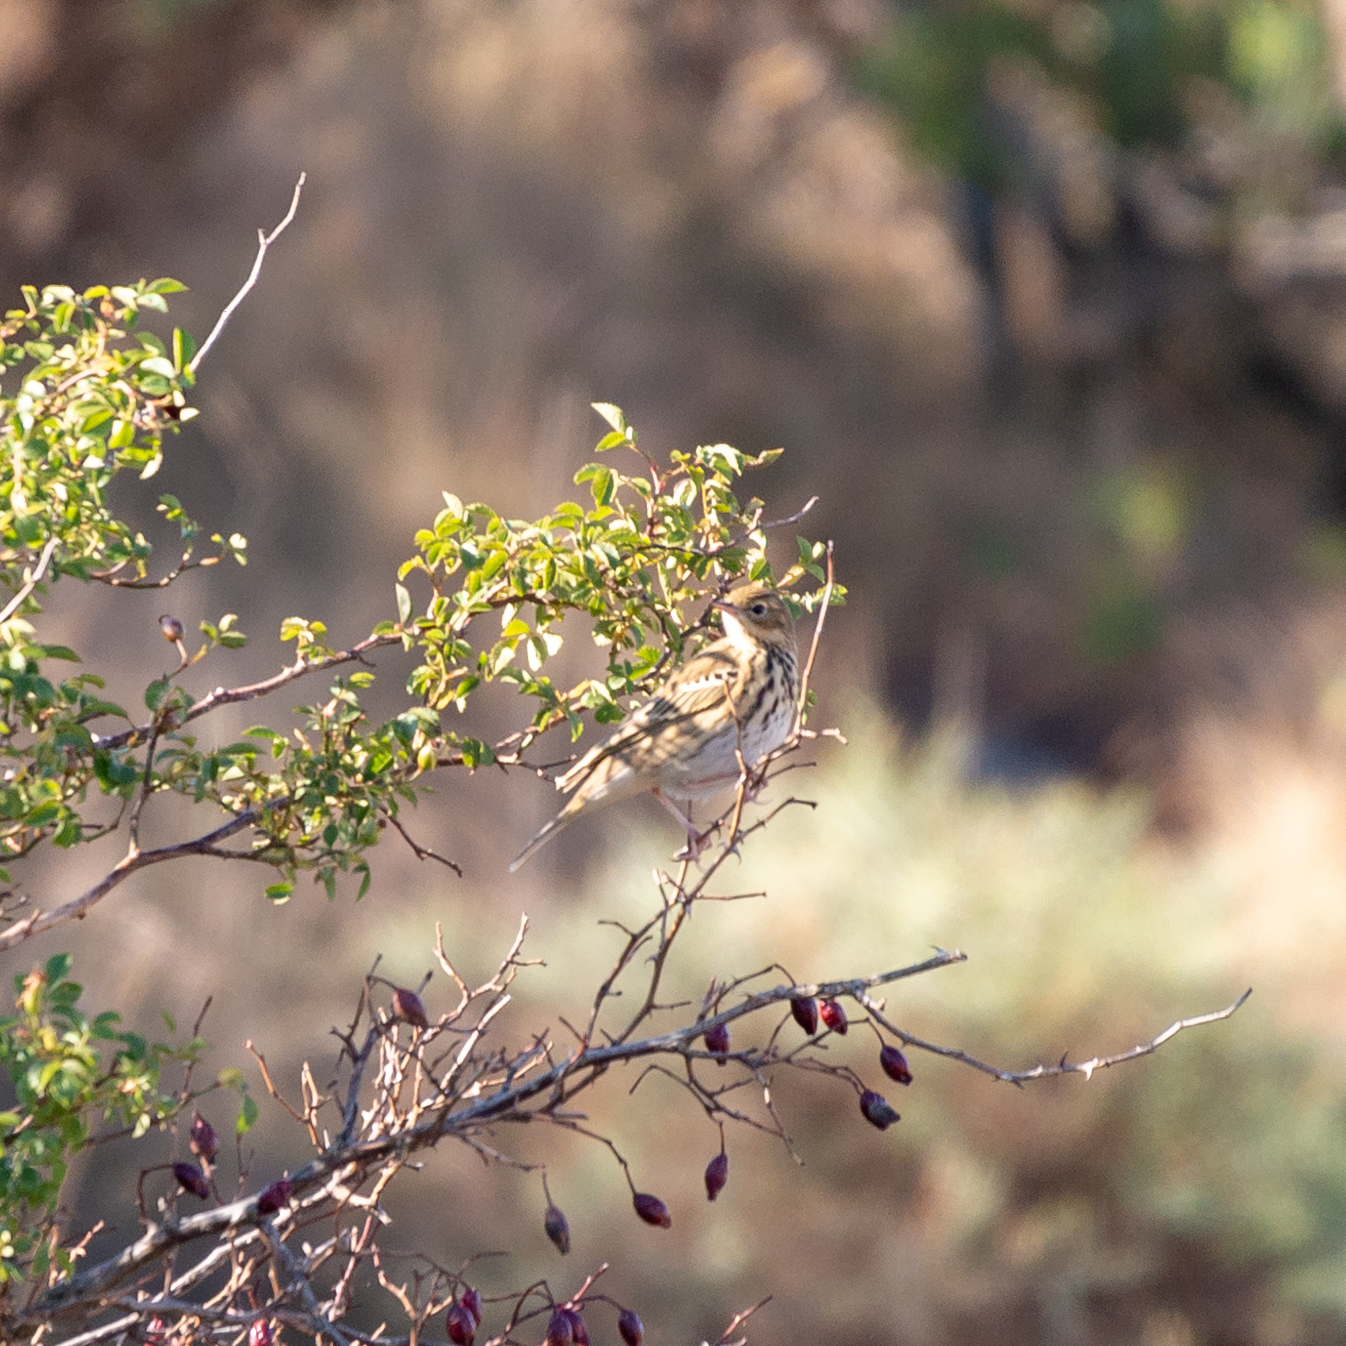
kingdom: Animalia
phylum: Chordata
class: Aves
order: Passeriformes
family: Motacillidae
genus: Anthus
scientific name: Anthus trivialis
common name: Tree pipit
